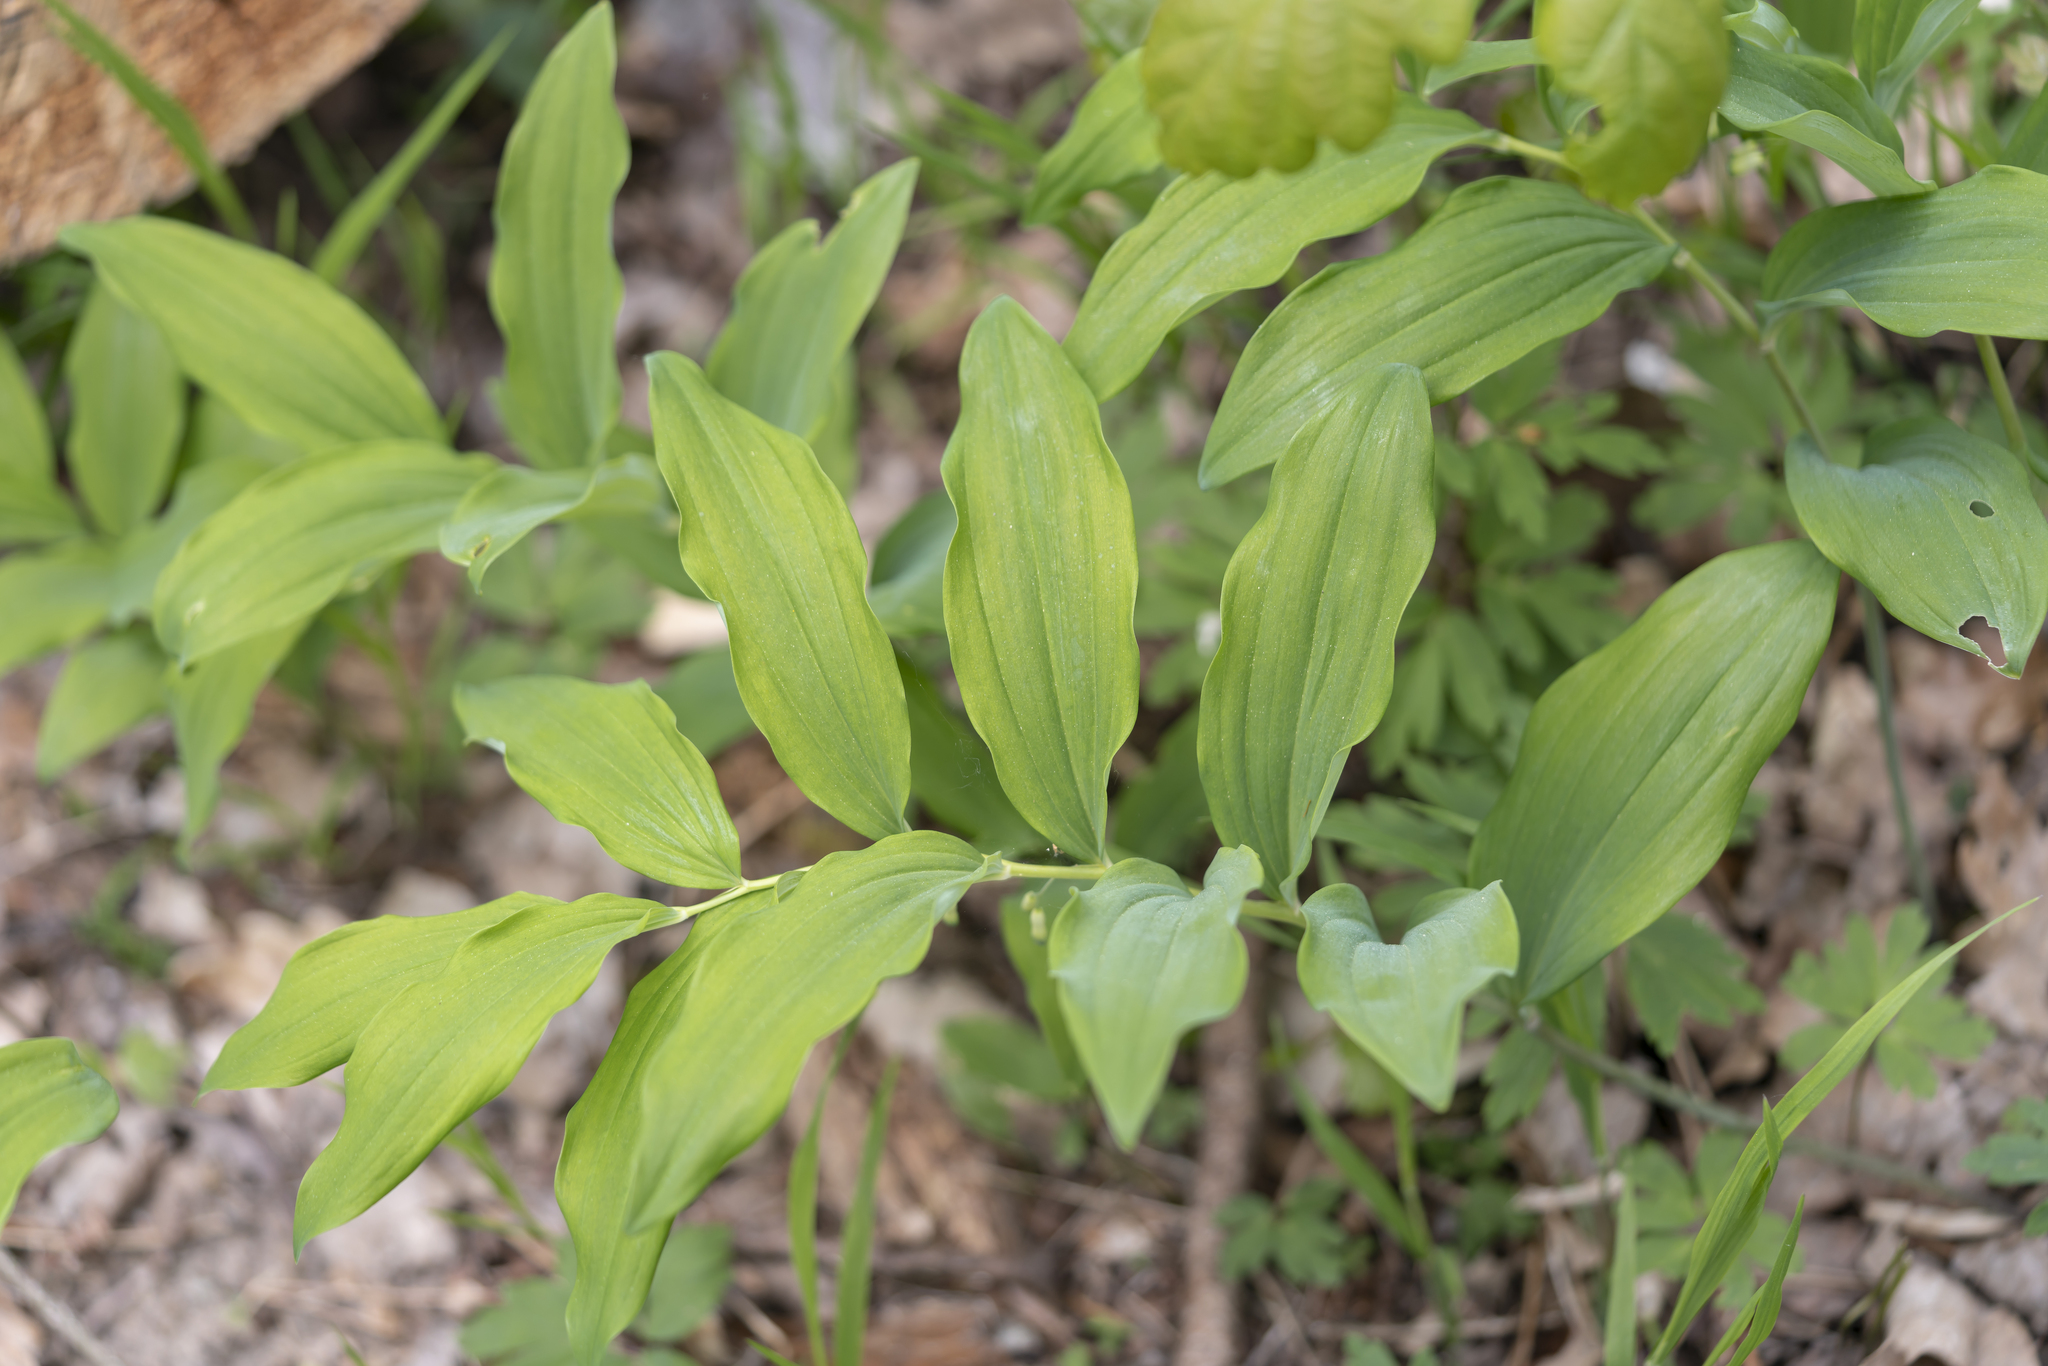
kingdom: Plantae
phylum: Tracheophyta
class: Liliopsida
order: Asparagales
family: Asparagaceae
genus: Polygonatum
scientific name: Polygonatum multiflorum
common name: Solomon's-seal
